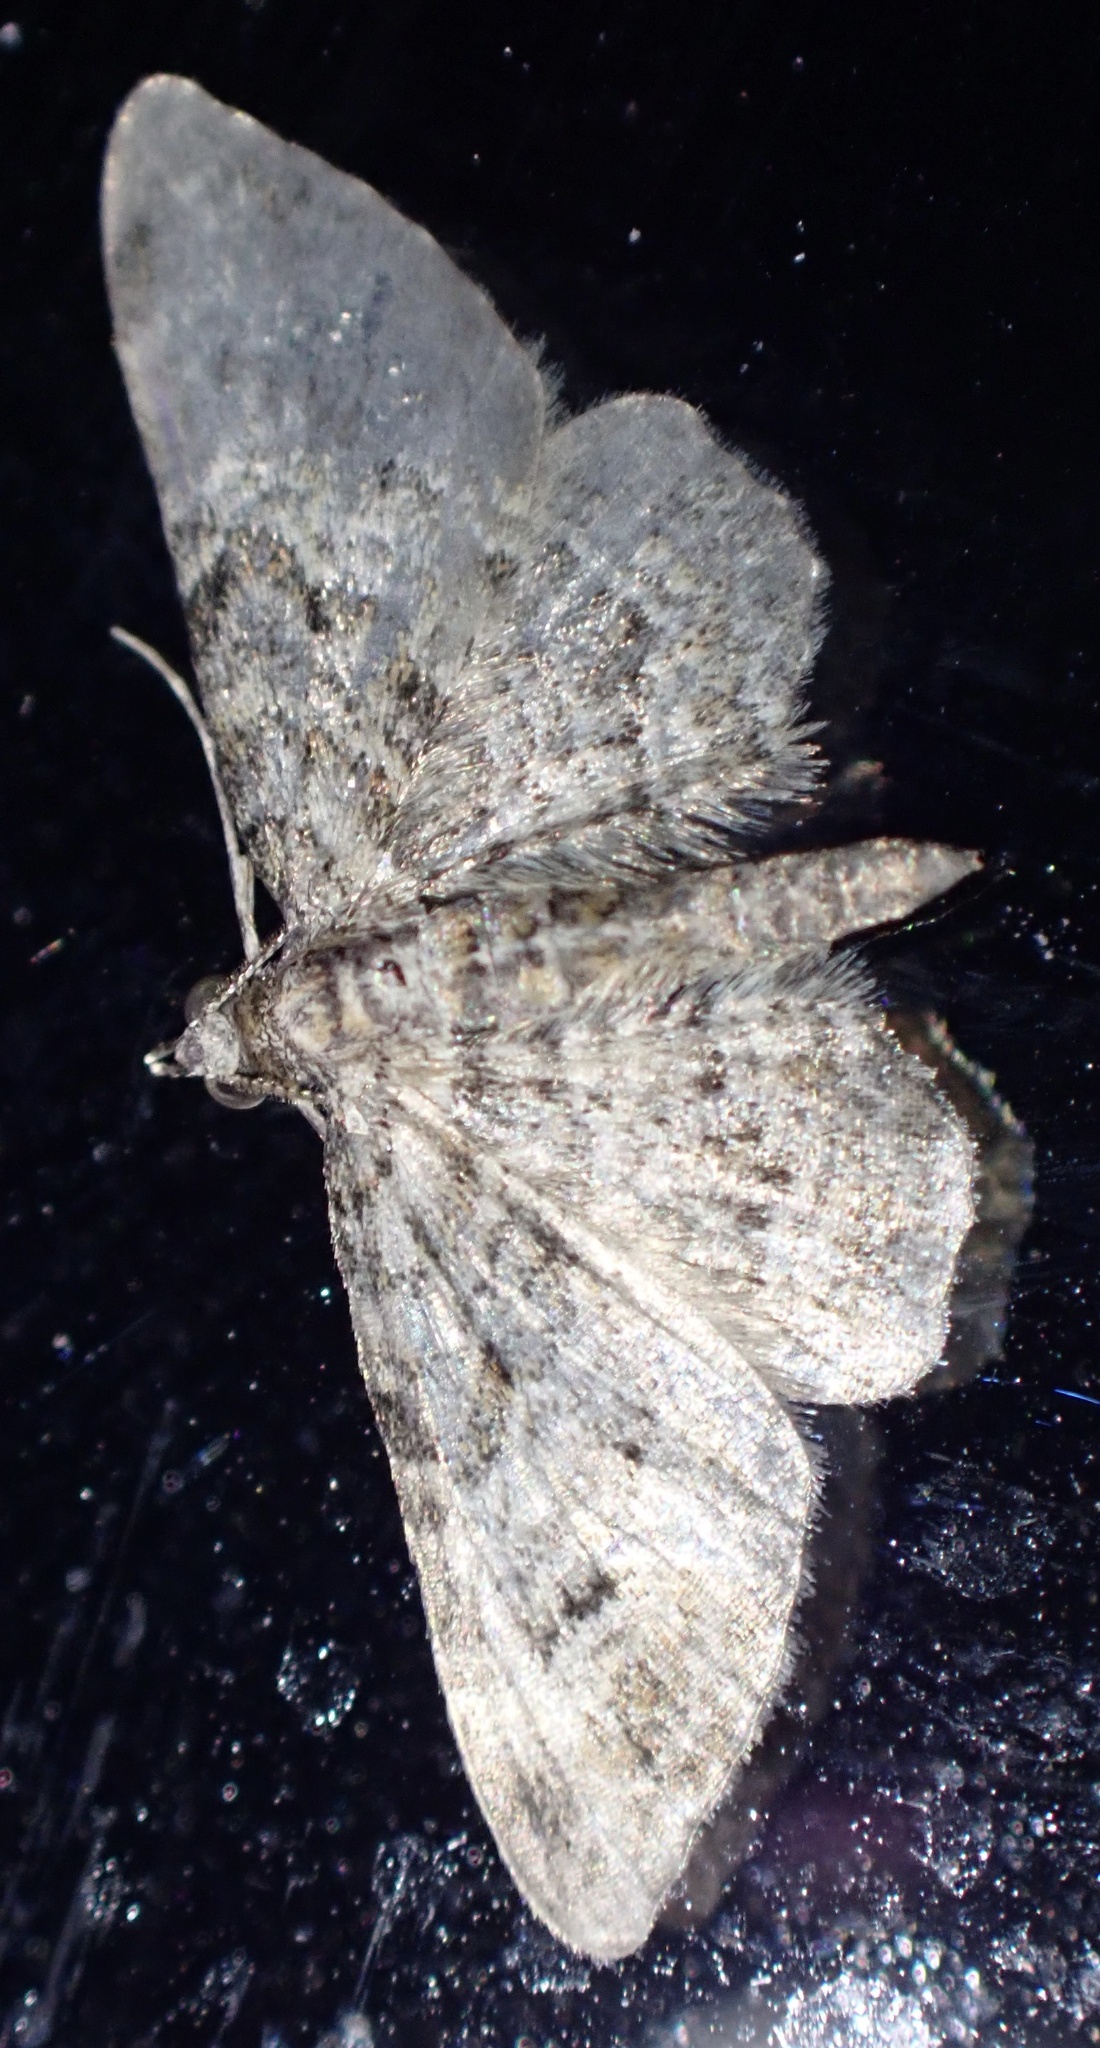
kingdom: Animalia
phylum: Arthropoda
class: Insecta
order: Lepidoptera
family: Geometridae
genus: Gymnoscelis
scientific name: Gymnoscelis rufifasciata
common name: Double-striped pug
